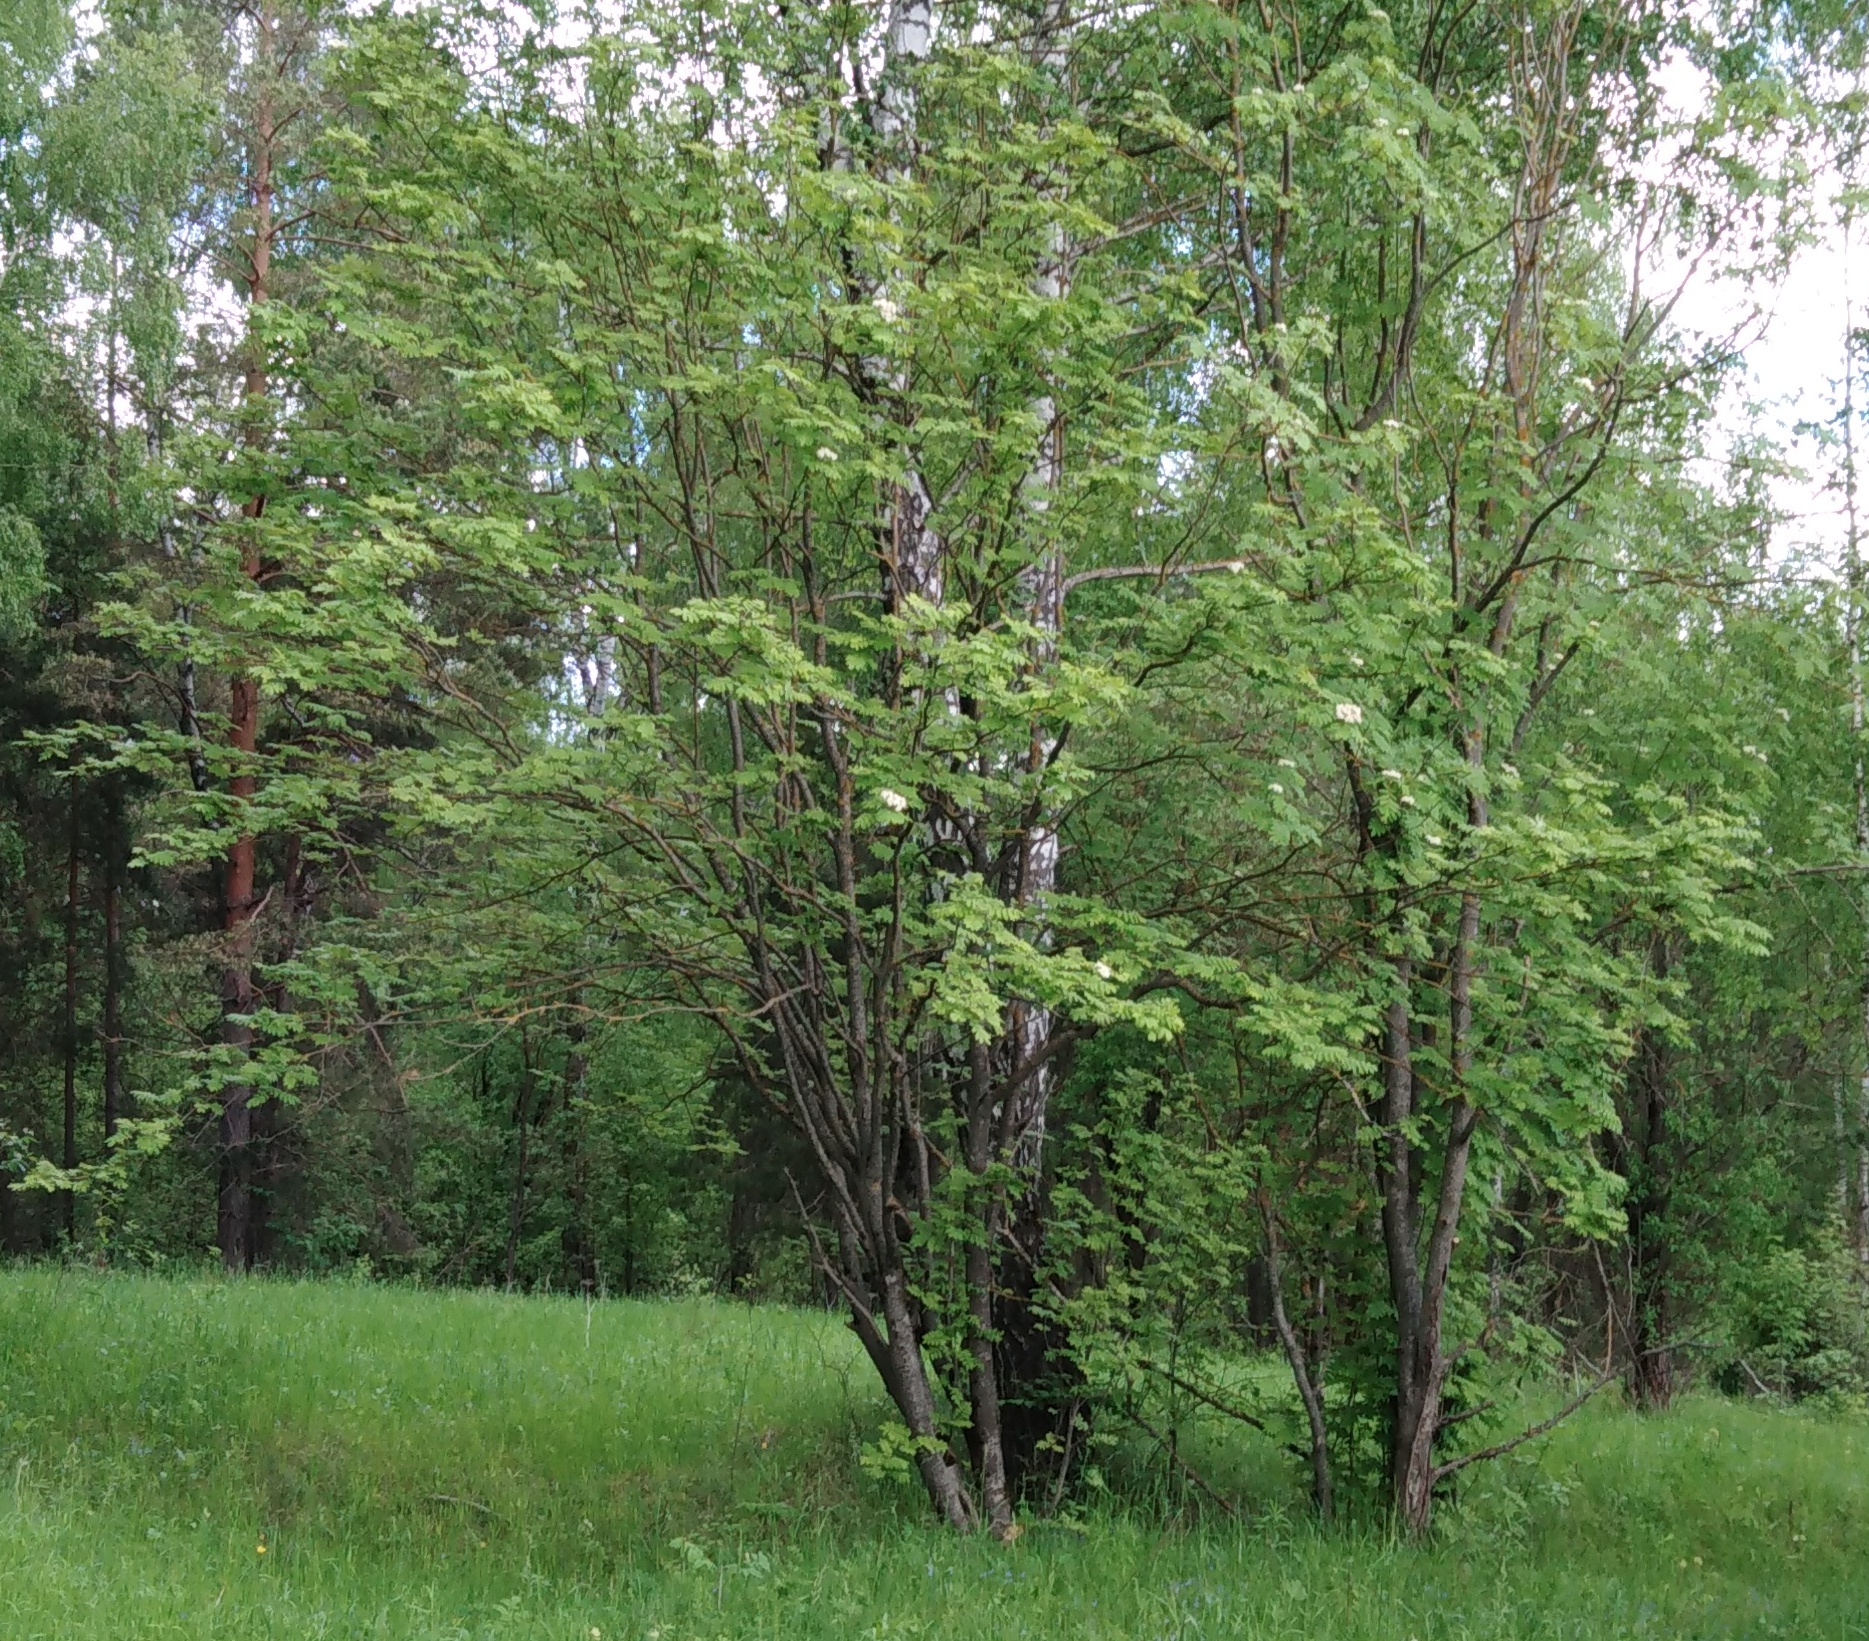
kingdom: Plantae
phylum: Tracheophyta
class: Magnoliopsida
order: Rosales
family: Rosaceae
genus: Sorbus
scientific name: Sorbus aucuparia
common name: Rowan
